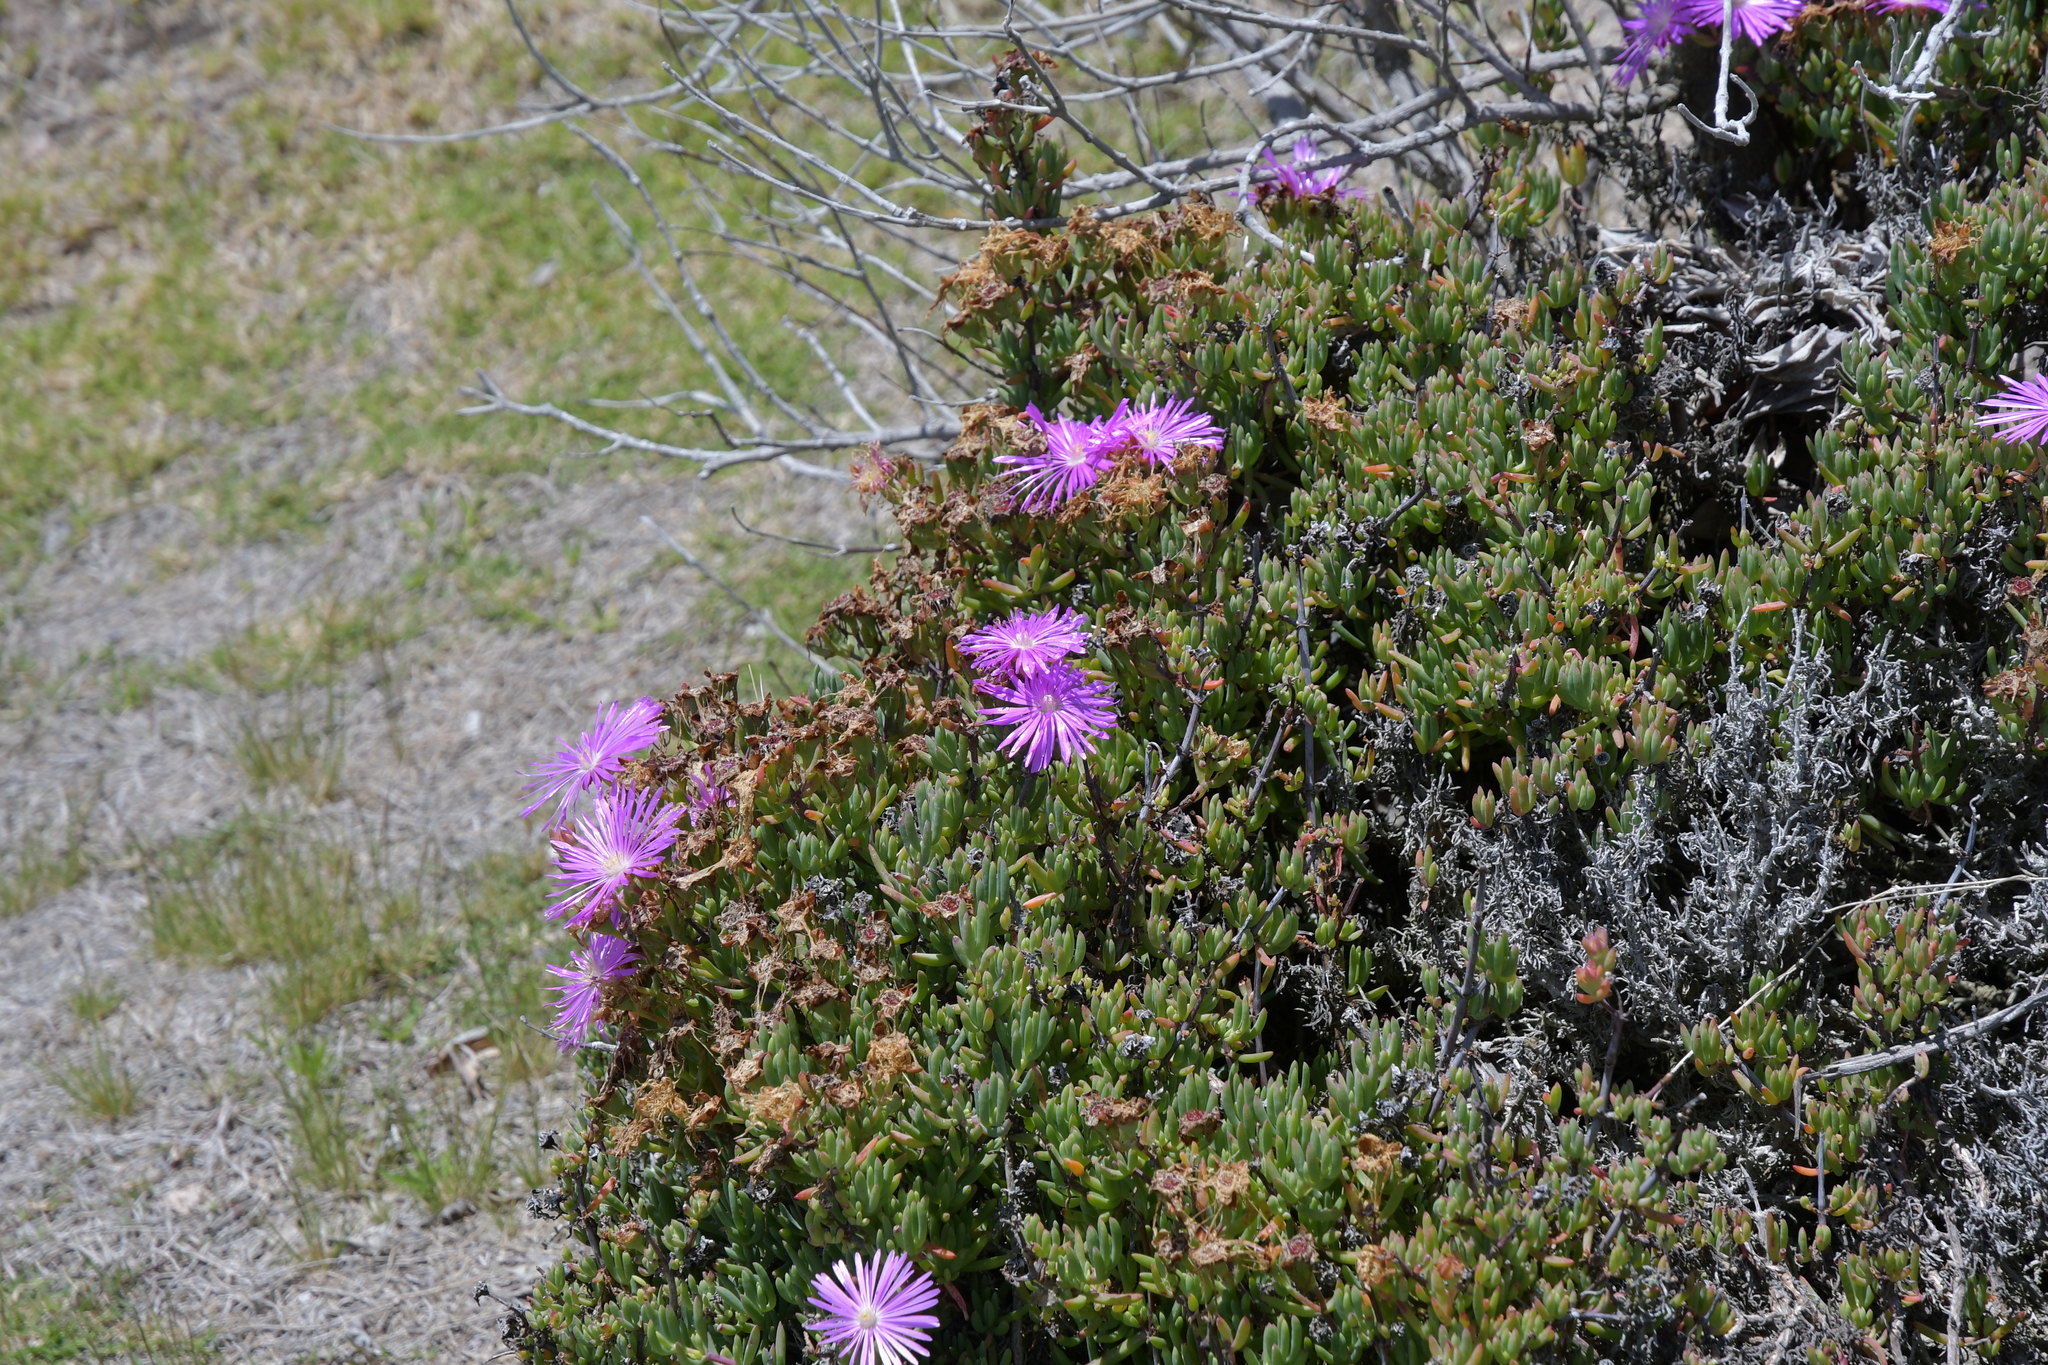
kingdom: Plantae
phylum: Tracheophyta
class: Magnoliopsida
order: Caryophyllales
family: Aizoaceae
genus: Drosanthemum
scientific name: Drosanthemum floribundum
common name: Pale dewplant
